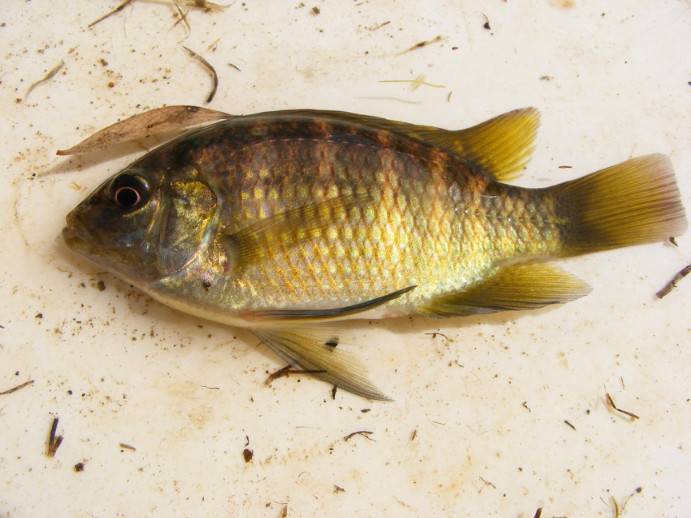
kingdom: Animalia
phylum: Chordata
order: Perciformes
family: Cichlidae
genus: Tilapia
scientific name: Tilapia sparrmanii
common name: Banded tilapia
